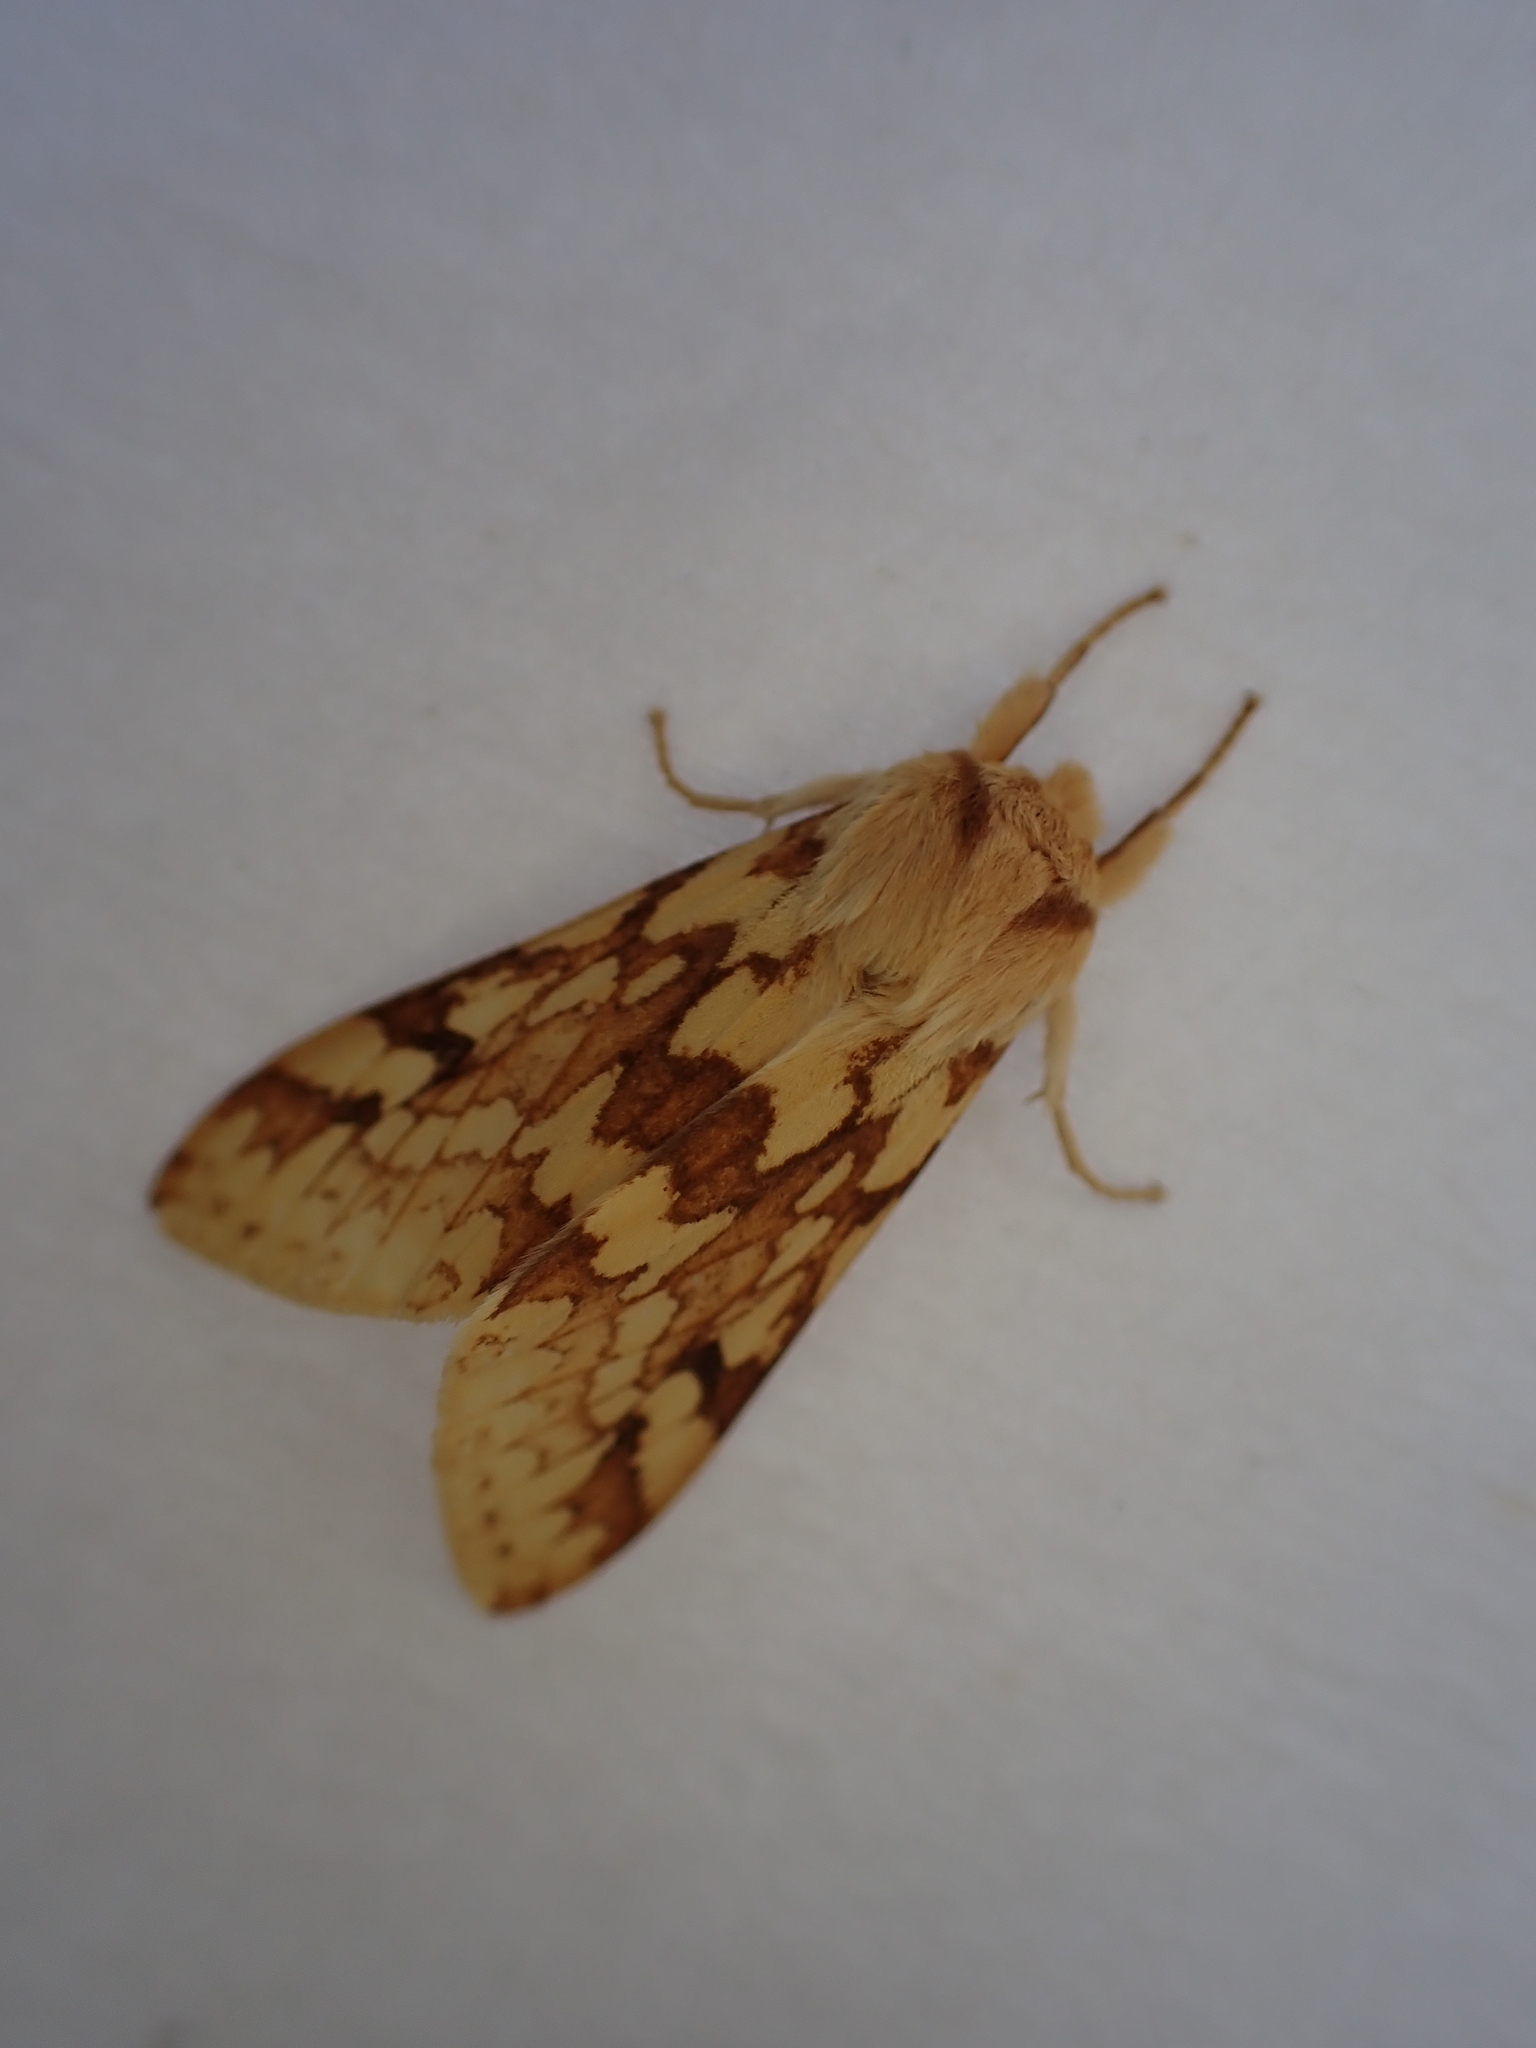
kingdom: Animalia
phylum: Arthropoda
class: Insecta
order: Lepidoptera
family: Erebidae
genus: Lophocampa
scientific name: Lophocampa maculata
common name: Spotted tussock moth
